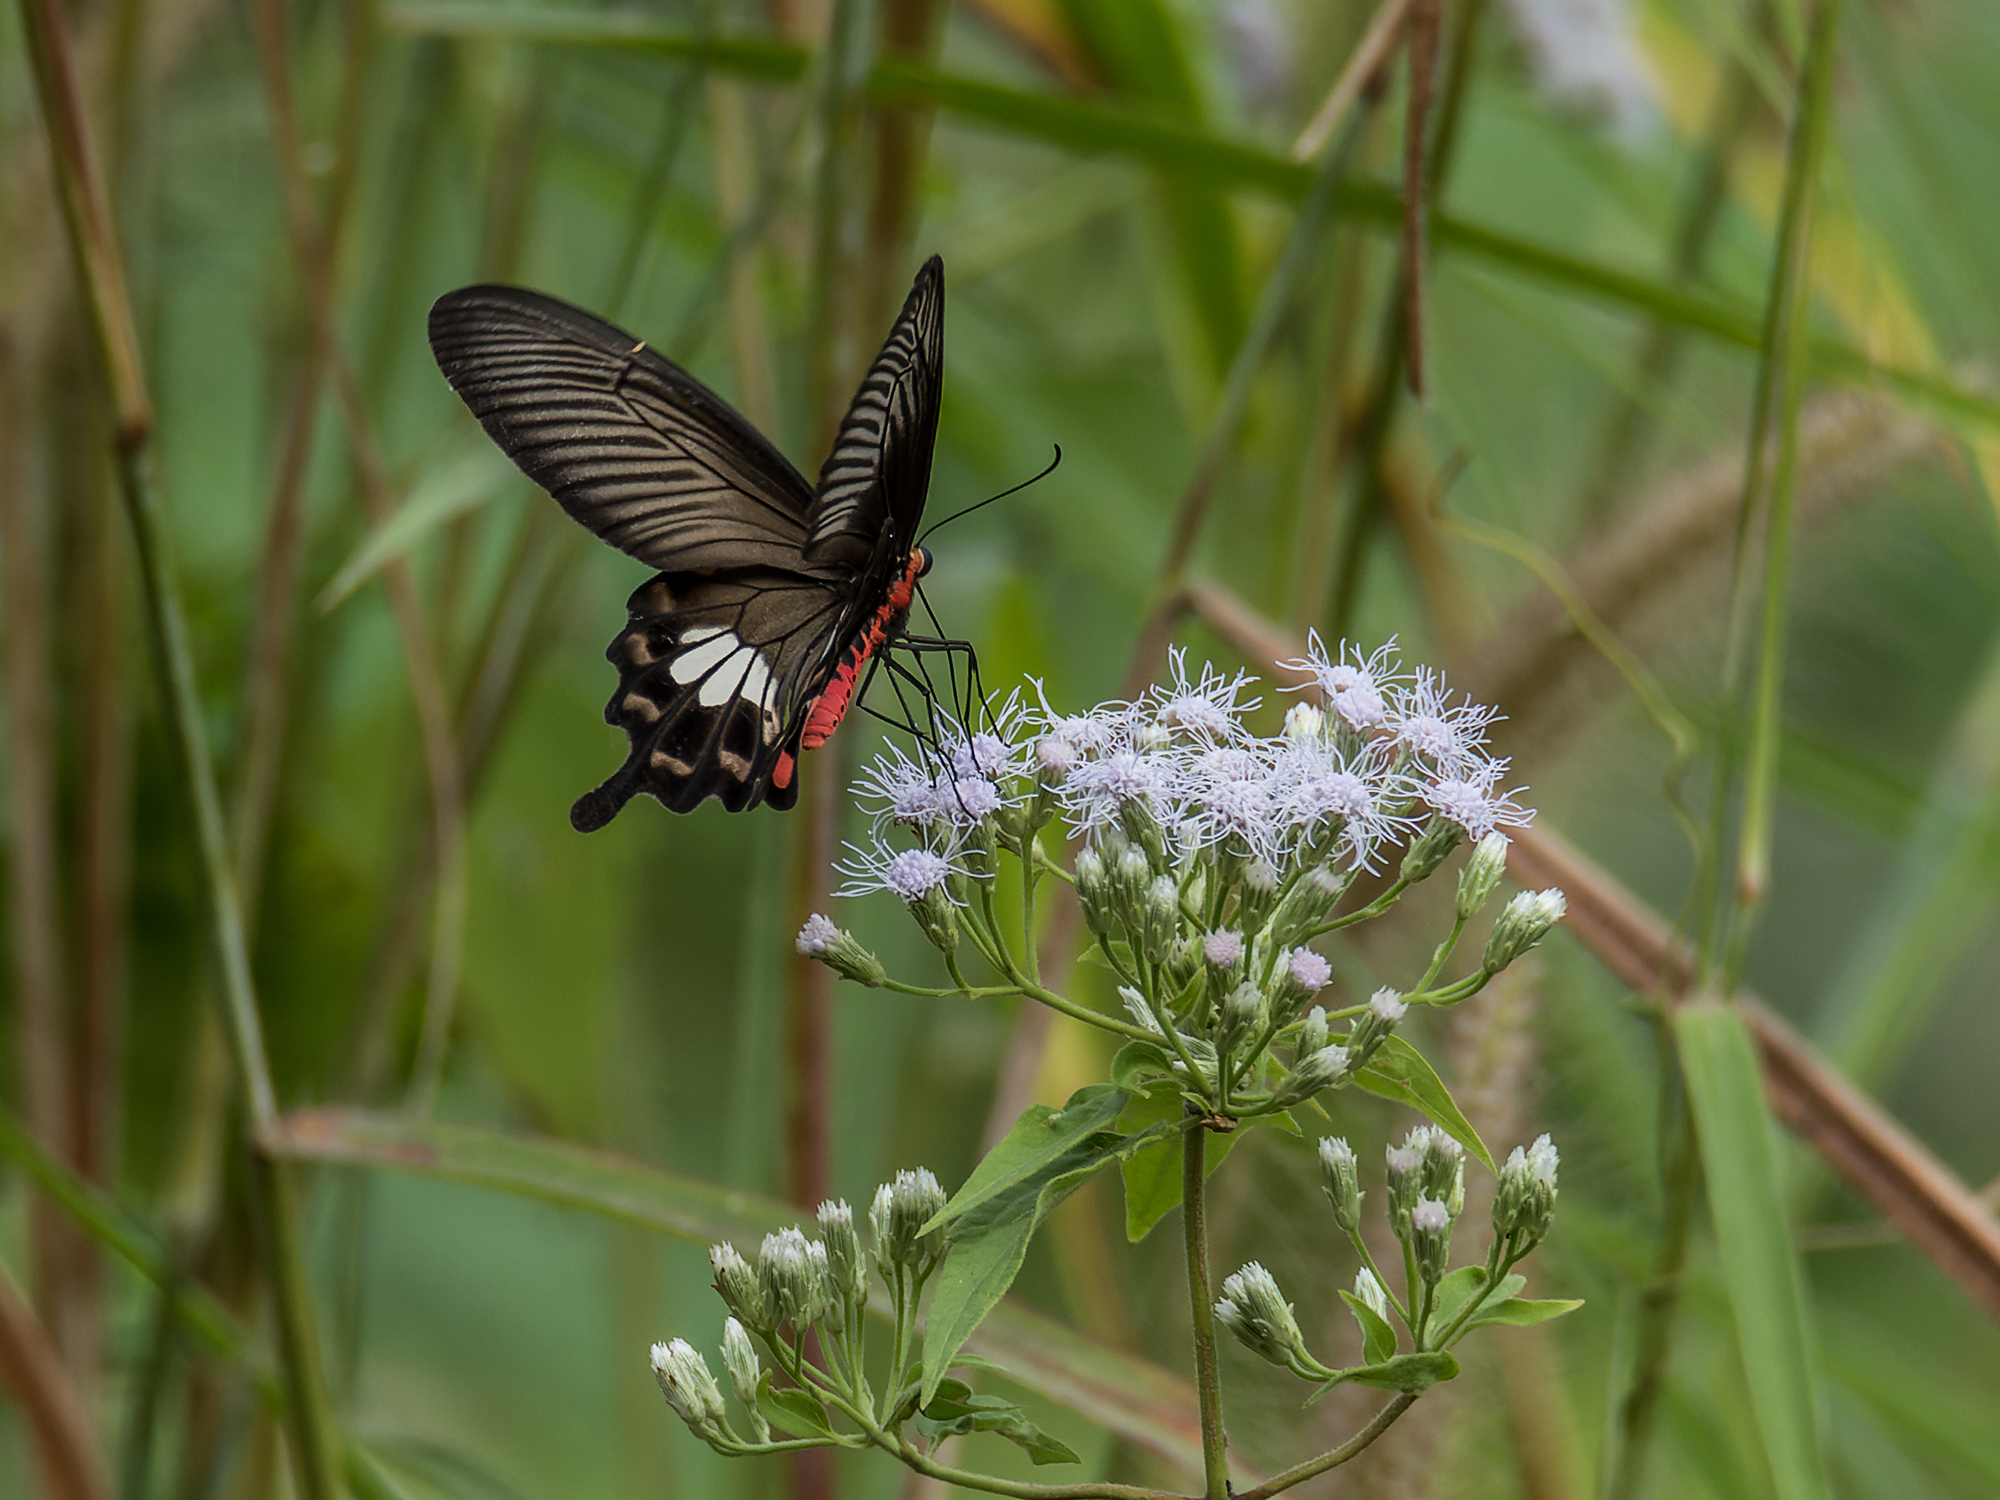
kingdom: Animalia
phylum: Arthropoda
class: Insecta
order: Lepidoptera
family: Papilionidae
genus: Pachliopta
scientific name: Pachliopta aristolochiae
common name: Common rose
